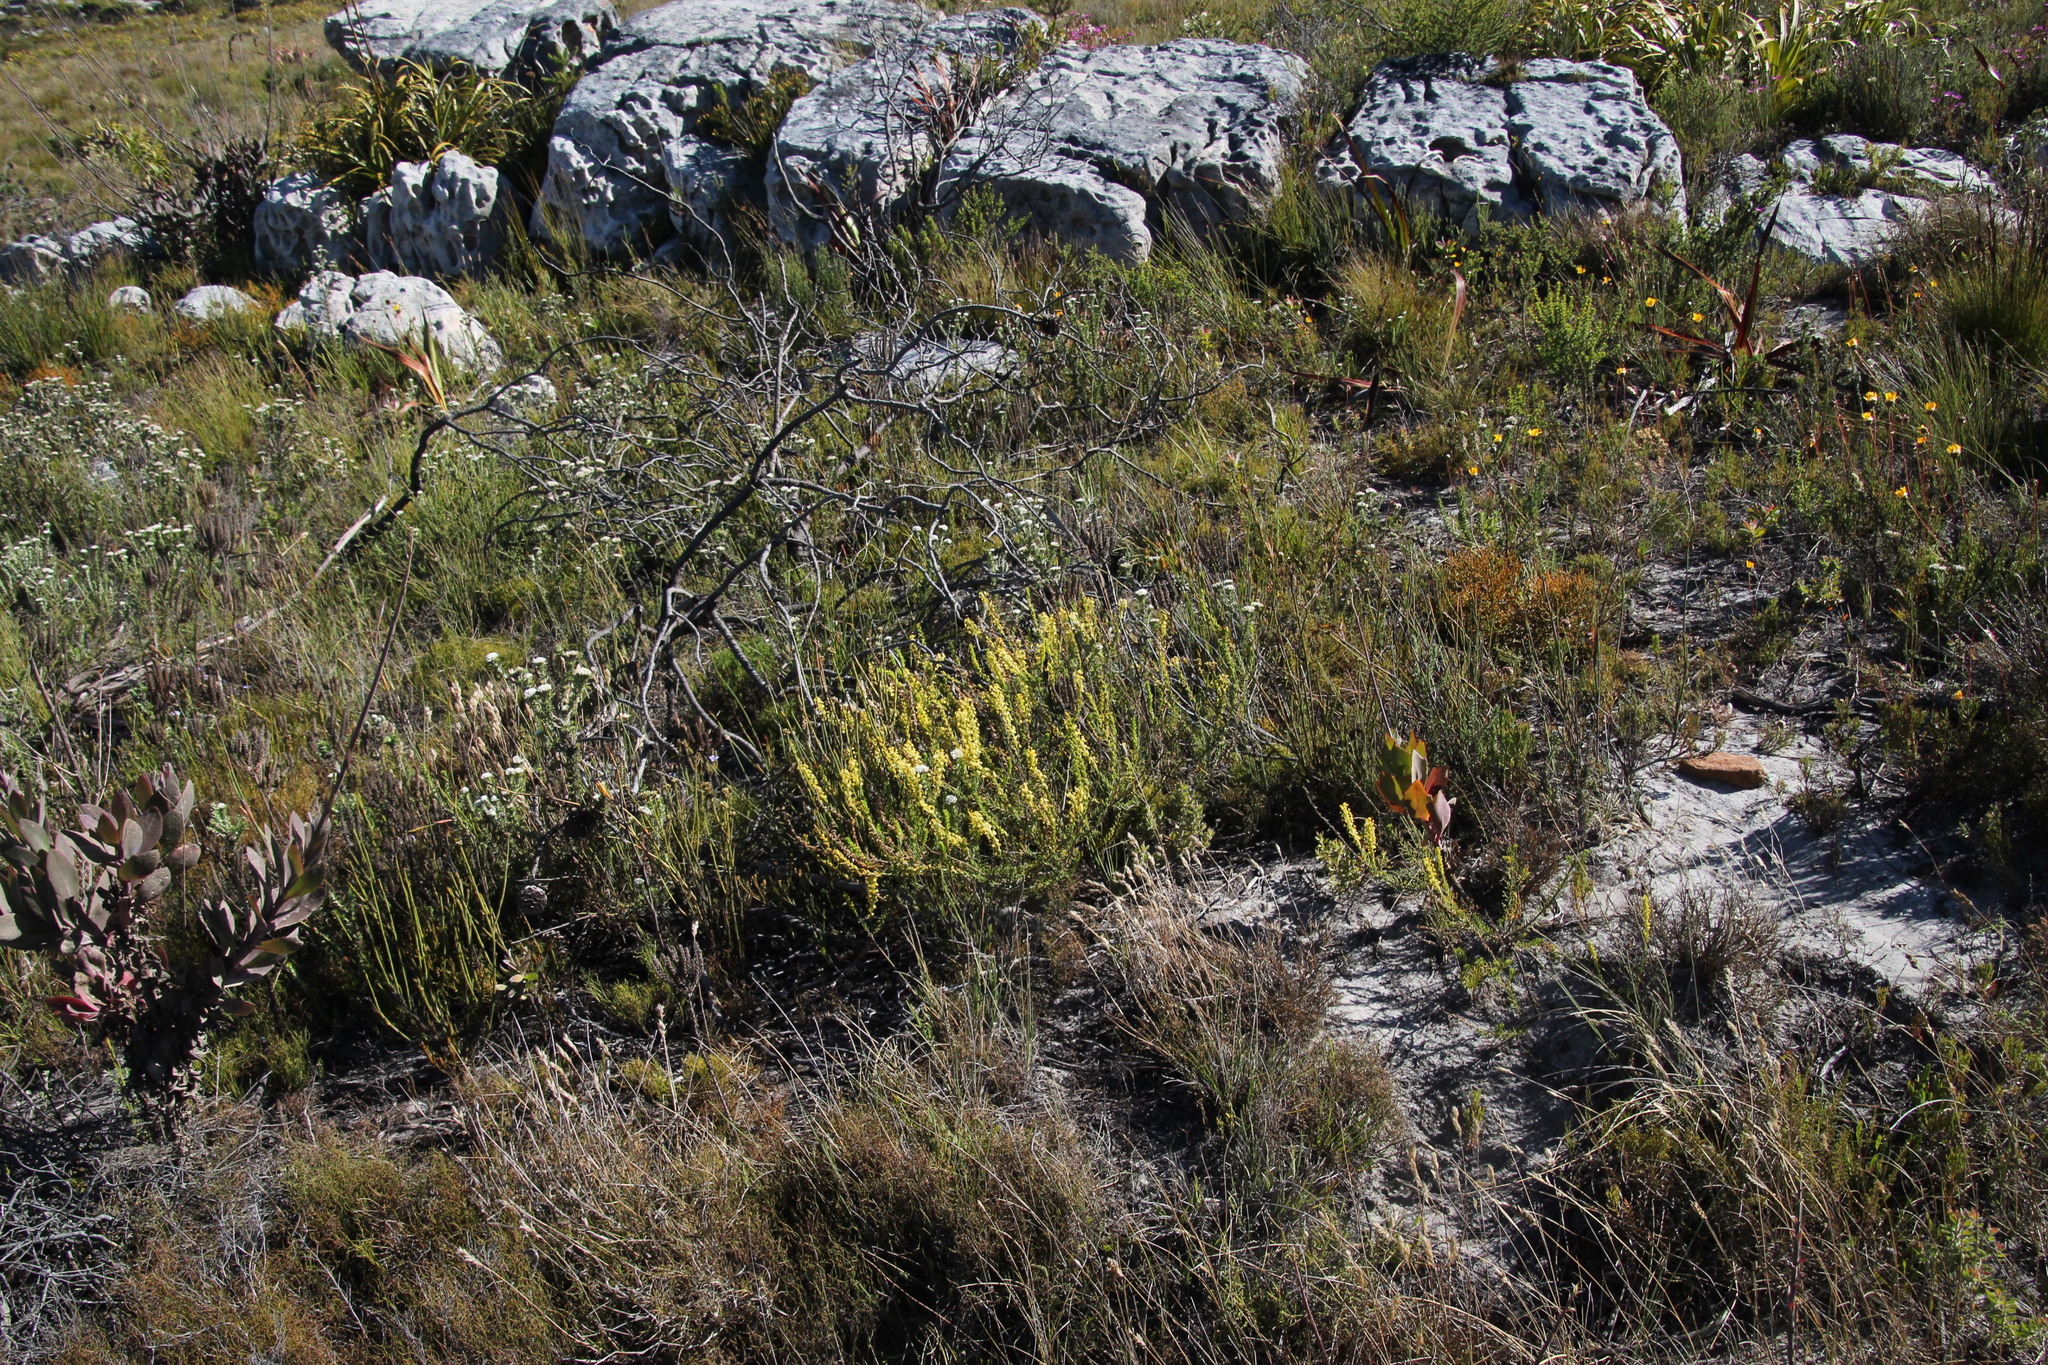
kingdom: Plantae
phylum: Tracheophyta
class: Magnoliopsida
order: Lamiales
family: Scrophulariaceae
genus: Microdon
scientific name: Microdon dubius
